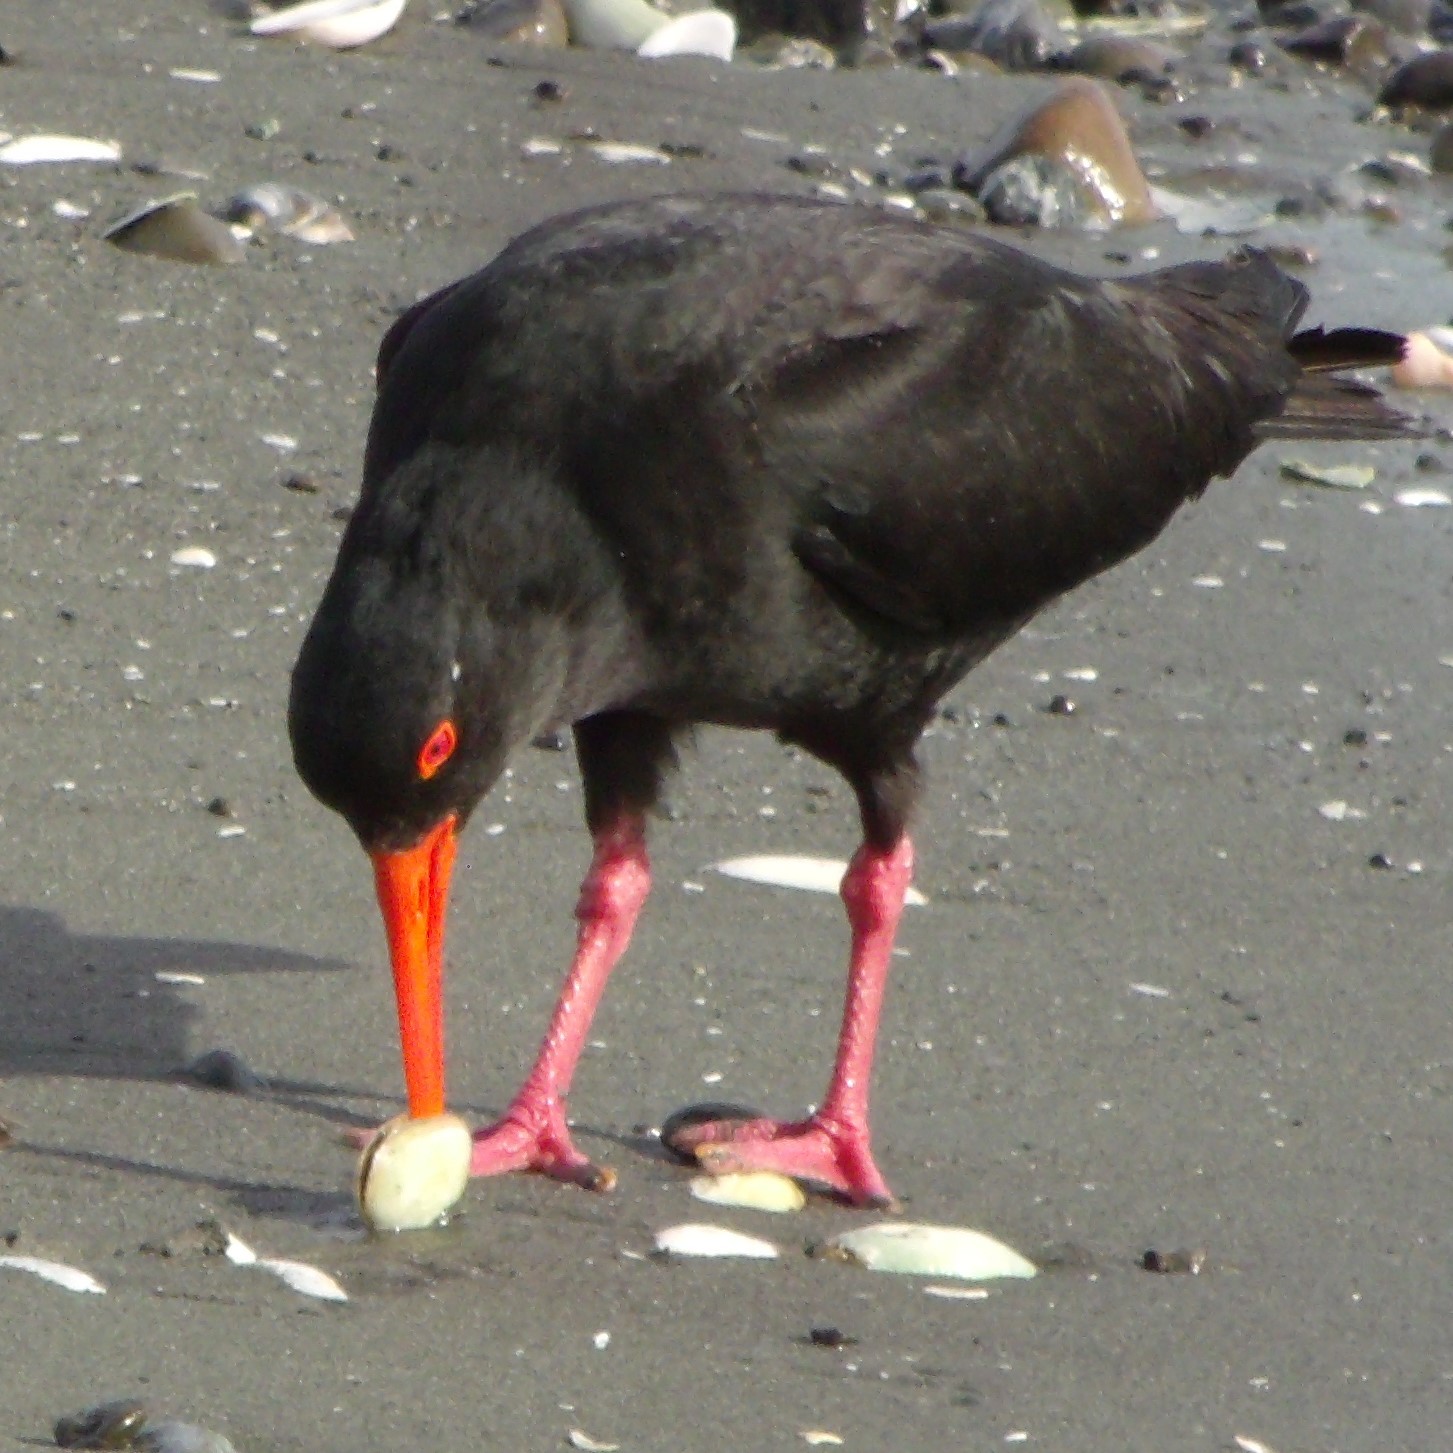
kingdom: Animalia
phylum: Chordata
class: Aves
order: Charadriiformes
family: Haematopodidae
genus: Haematopus
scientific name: Haematopus unicolor
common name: Variable oystercatcher
